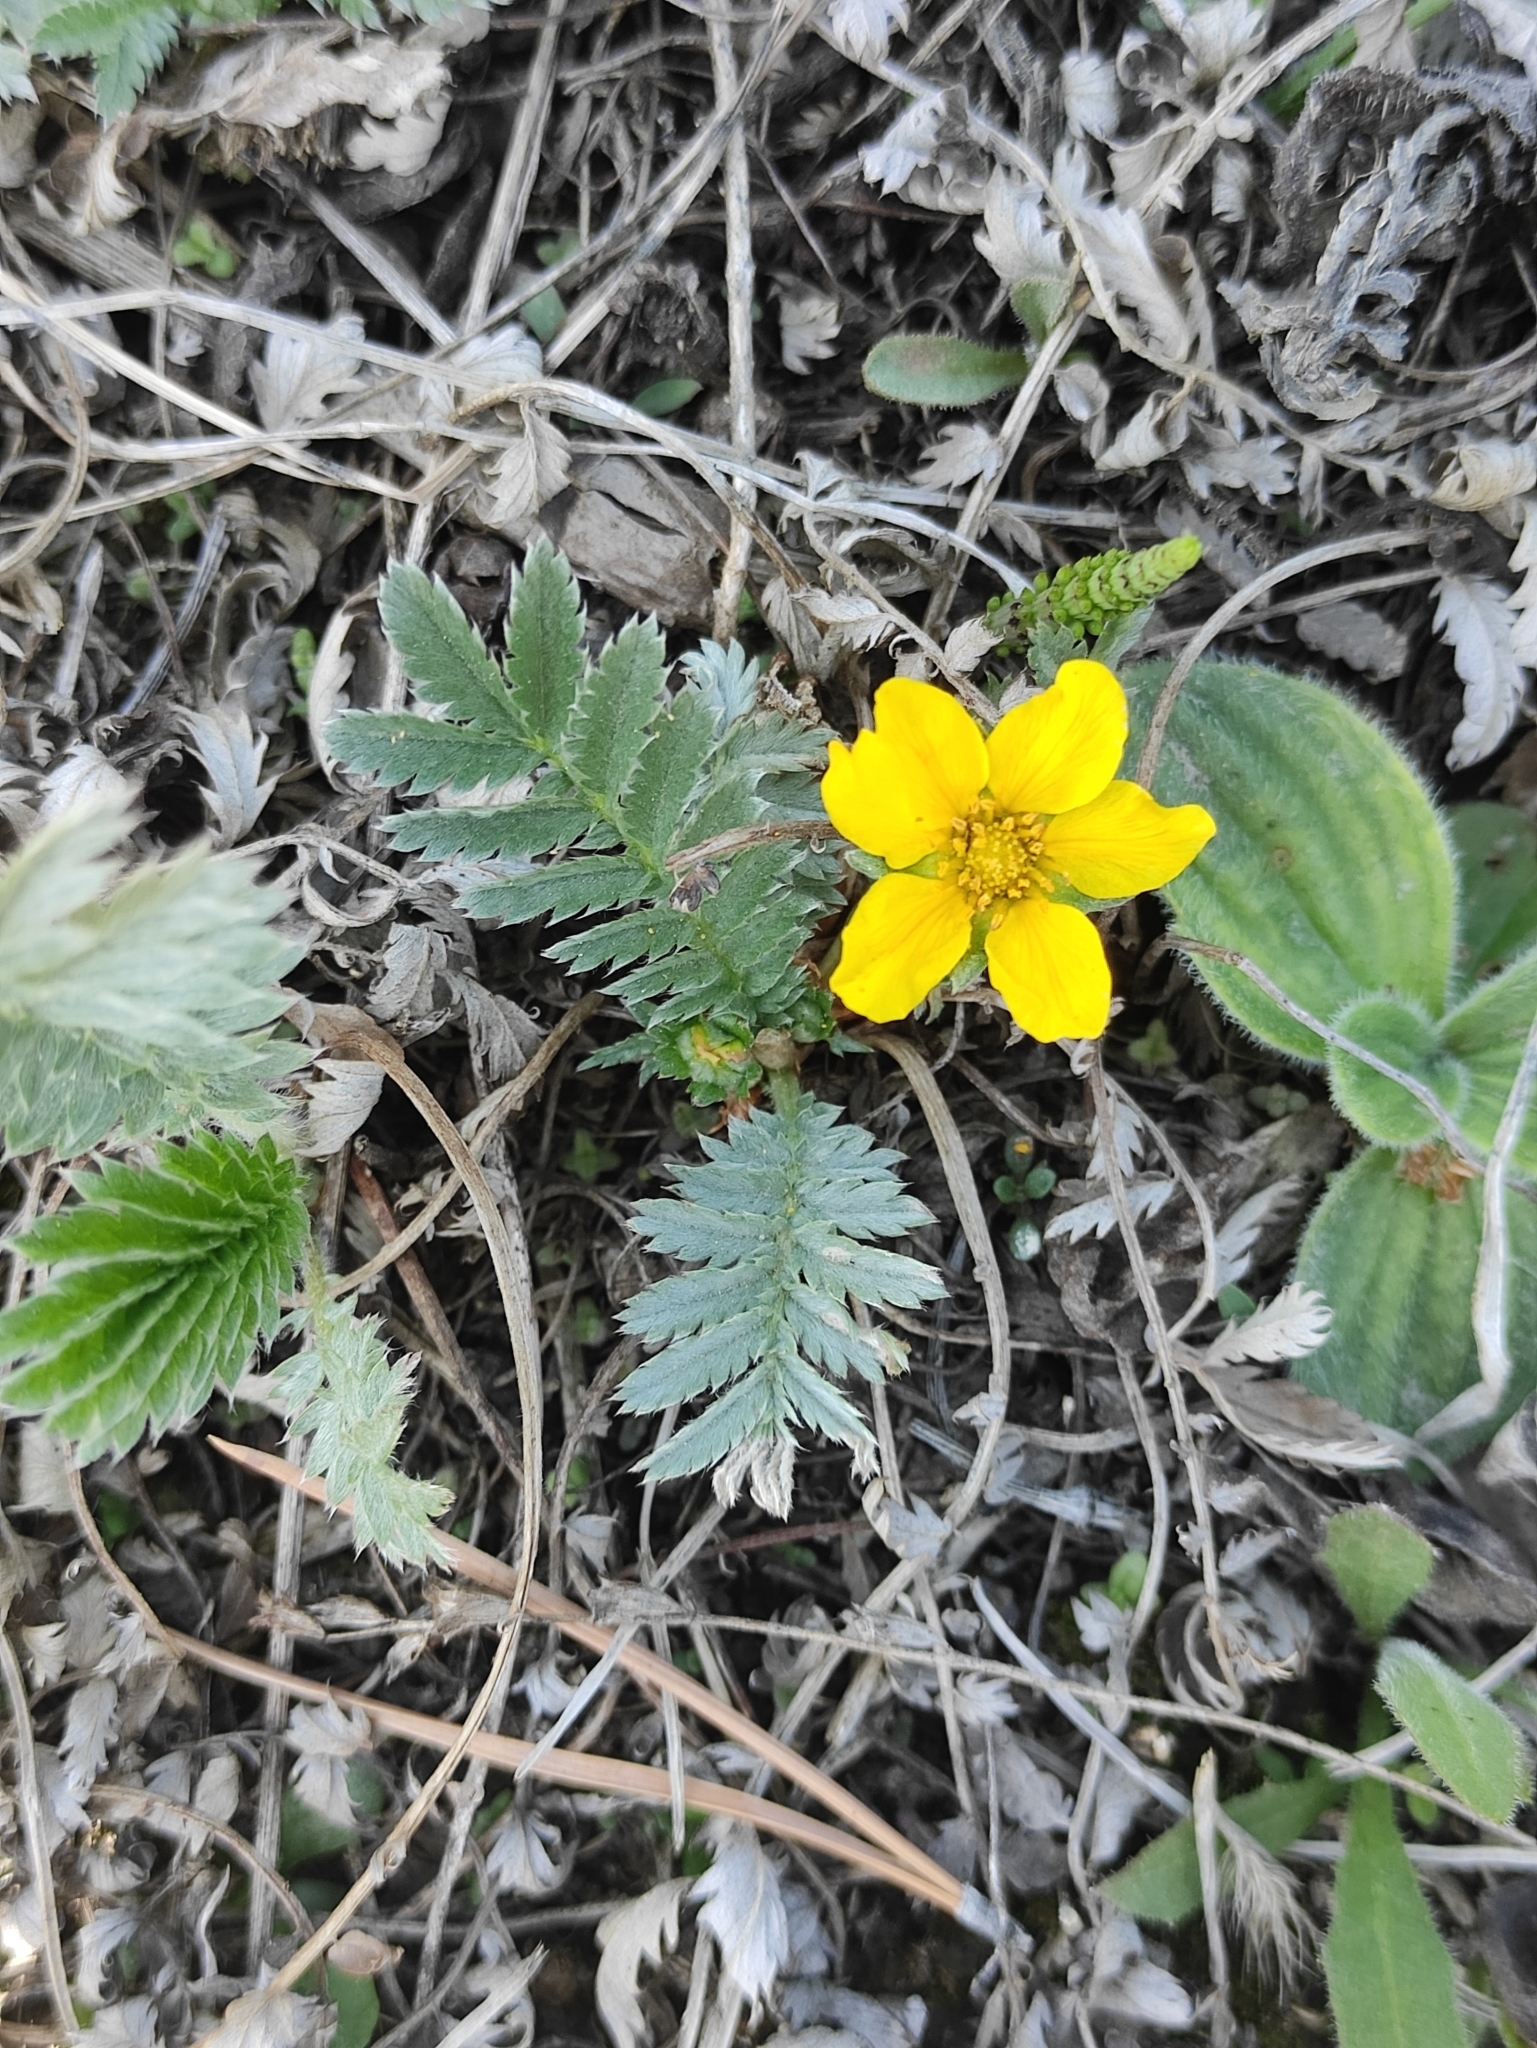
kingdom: Plantae
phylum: Tracheophyta
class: Magnoliopsida
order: Rosales
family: Rosaceae
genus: Argentina
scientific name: Argentina anserina
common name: Common silverweed
